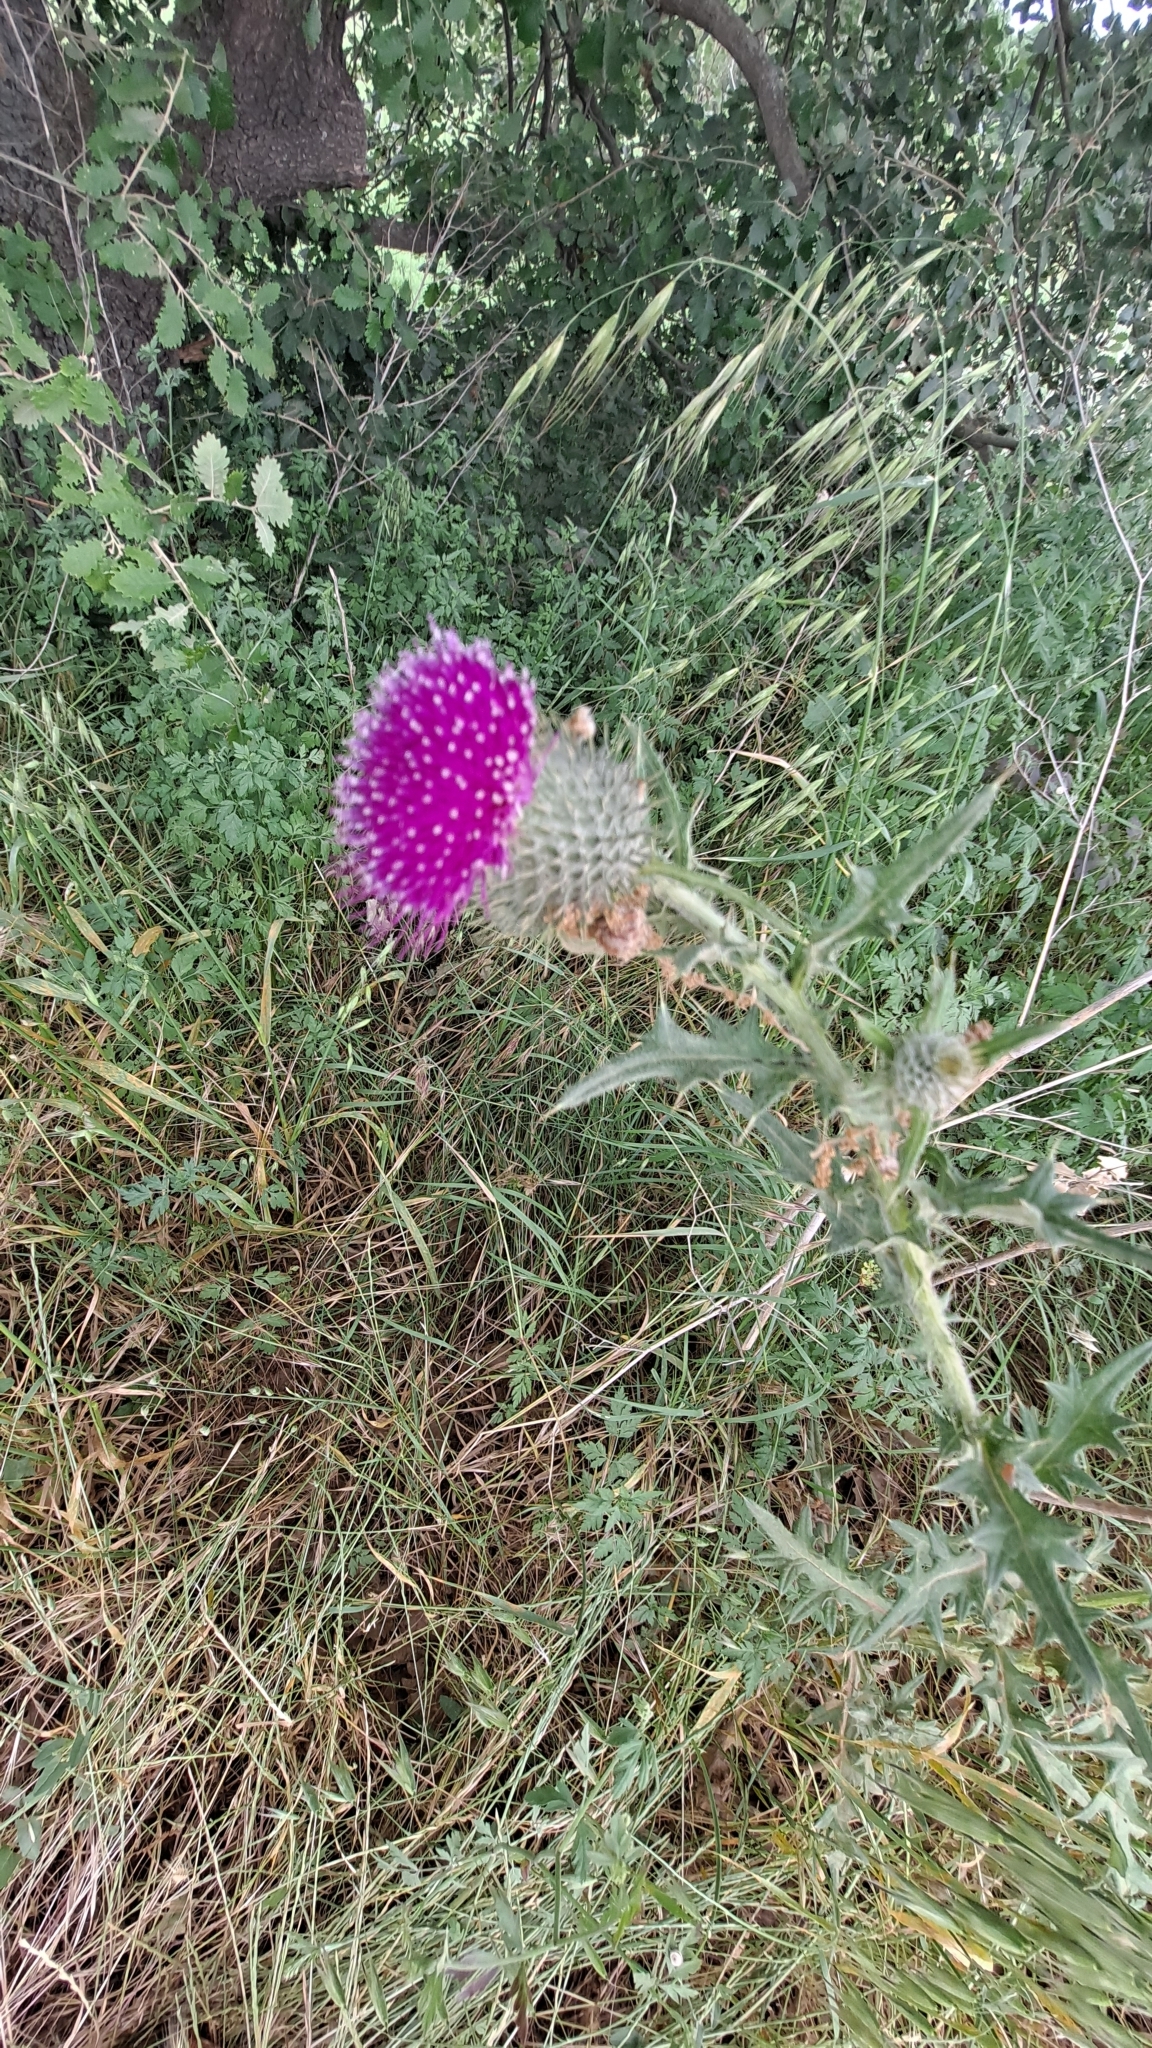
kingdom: Plantae
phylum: Tracheophyta
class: Magnoliopsida
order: Asterales
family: Asteraceae
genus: Cirsium
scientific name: Cirsium vulgare
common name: Bull thistle
